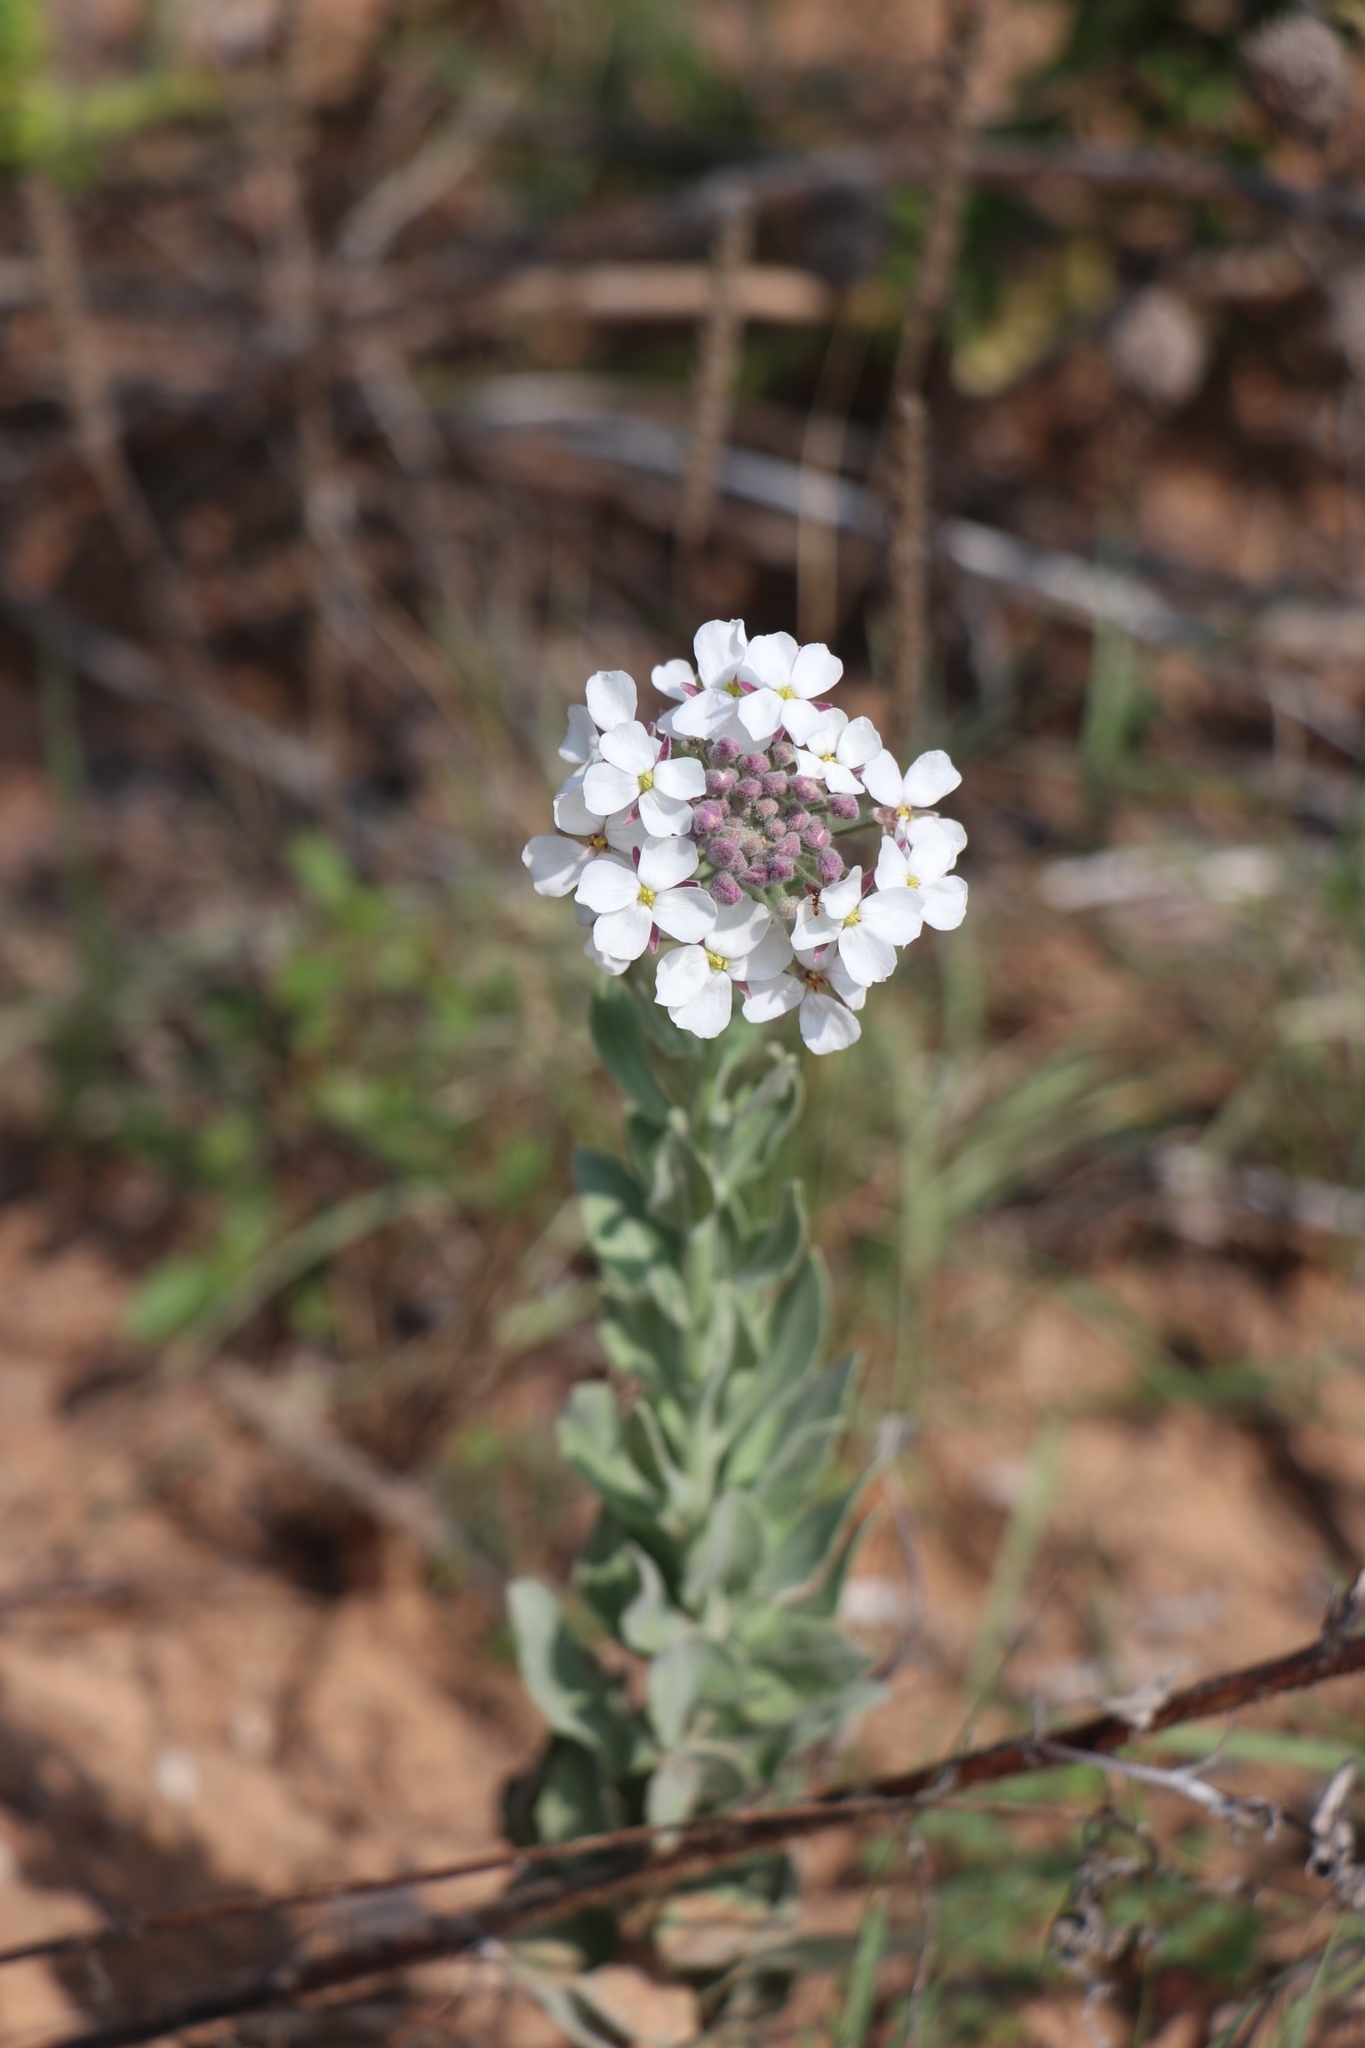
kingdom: Plantae
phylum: Tracheophyta
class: Magnoliopsida
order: Brassicales
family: Brassicaceae
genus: Dimorphocarpa
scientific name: Dimorphocarpa candicans
